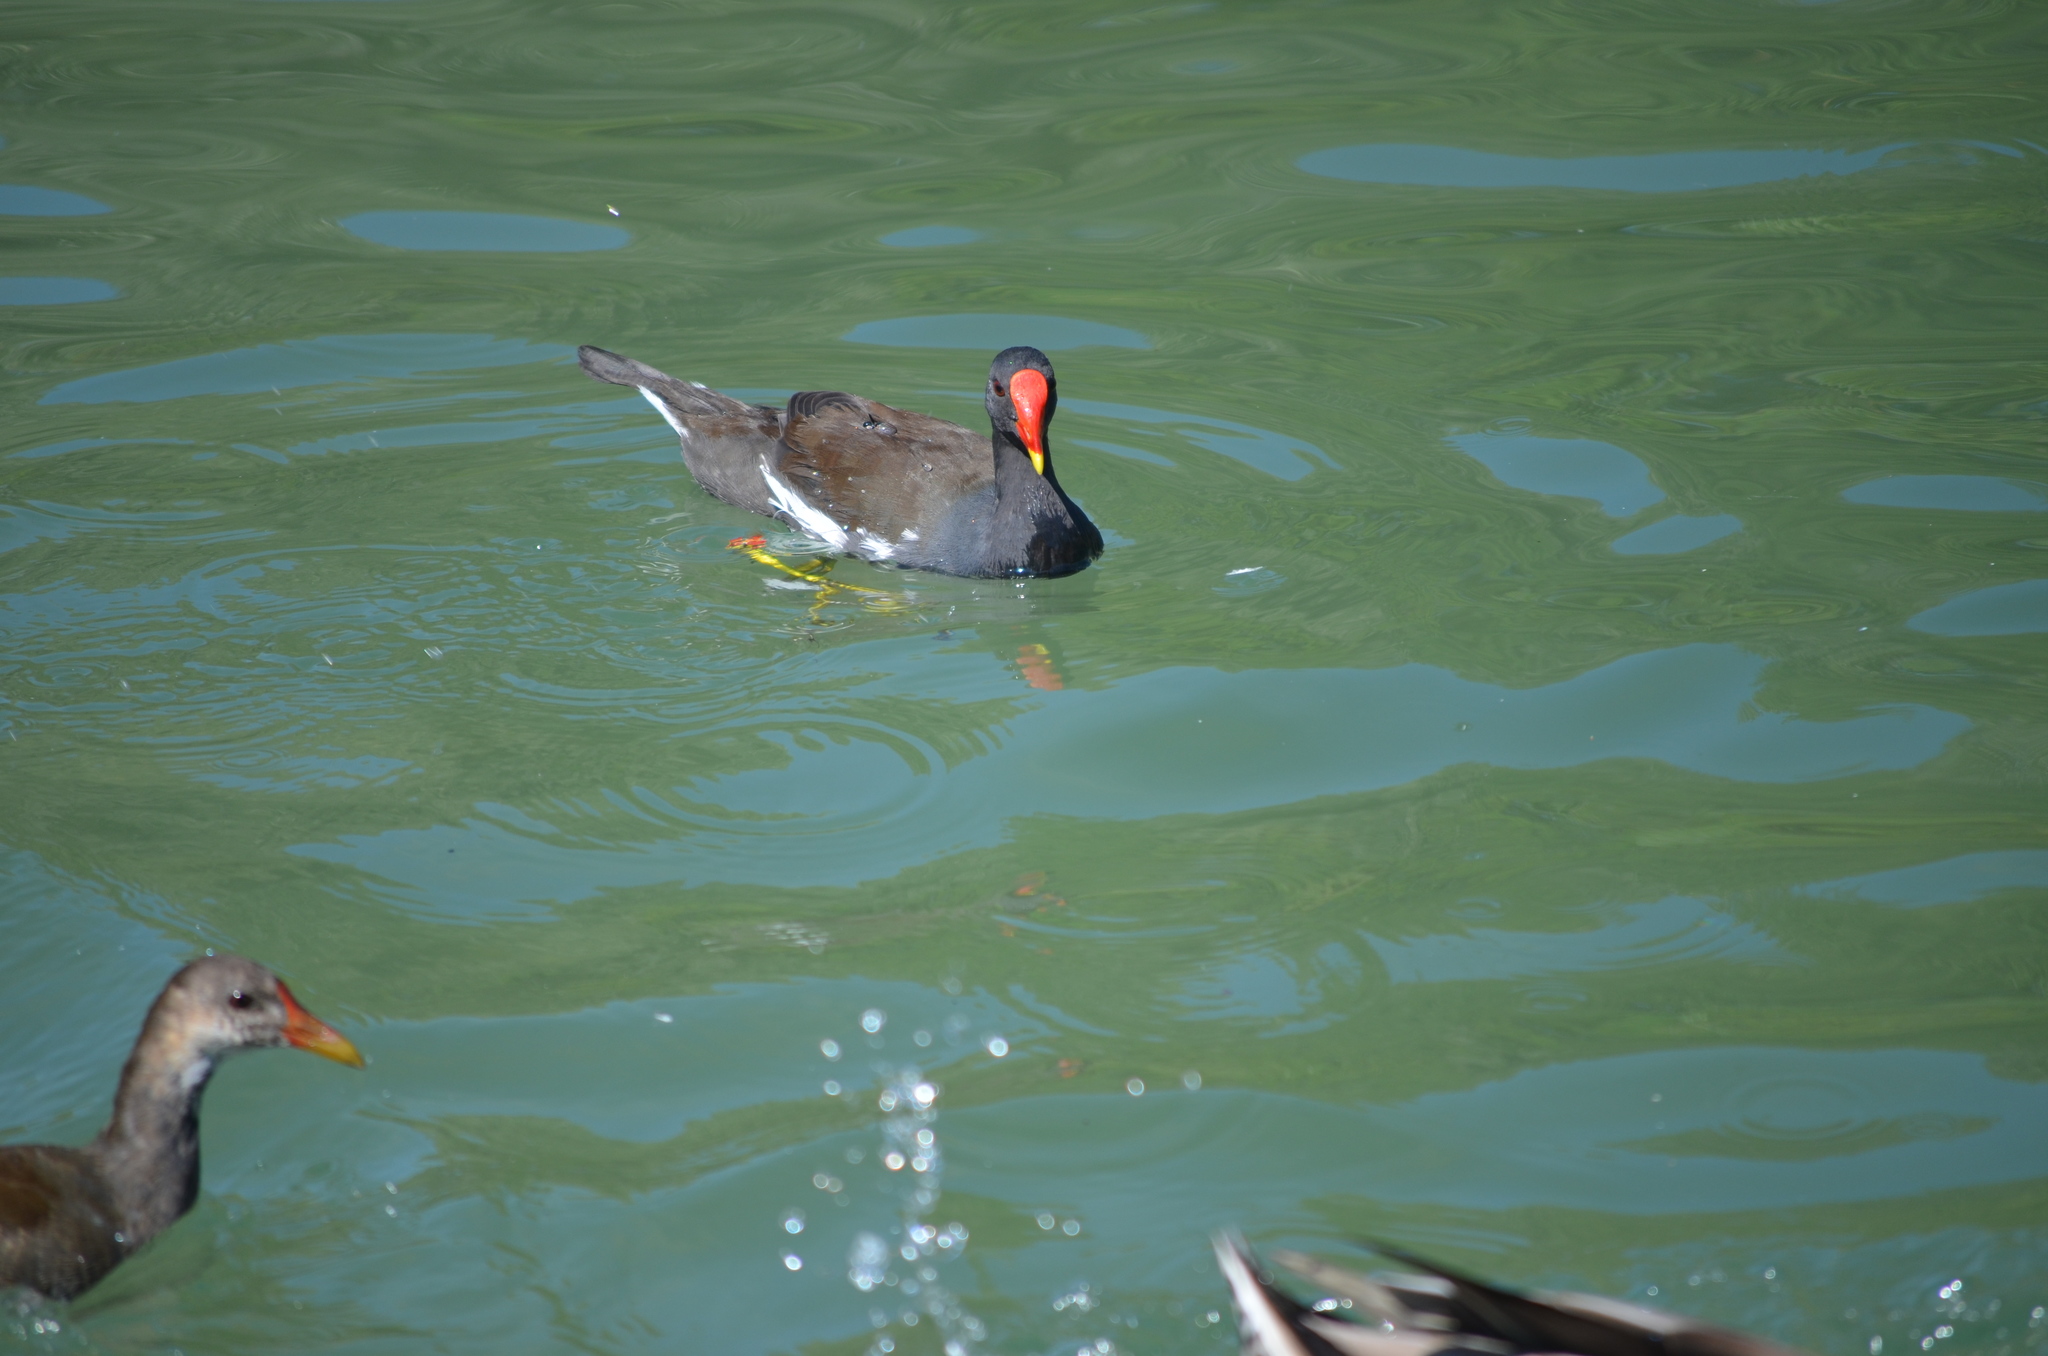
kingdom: Animalia
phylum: Chordata
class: Aves
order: Gruiformes
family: Rallidae
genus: Gallinula
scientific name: Gallinula chloropus
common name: Common moorhen
